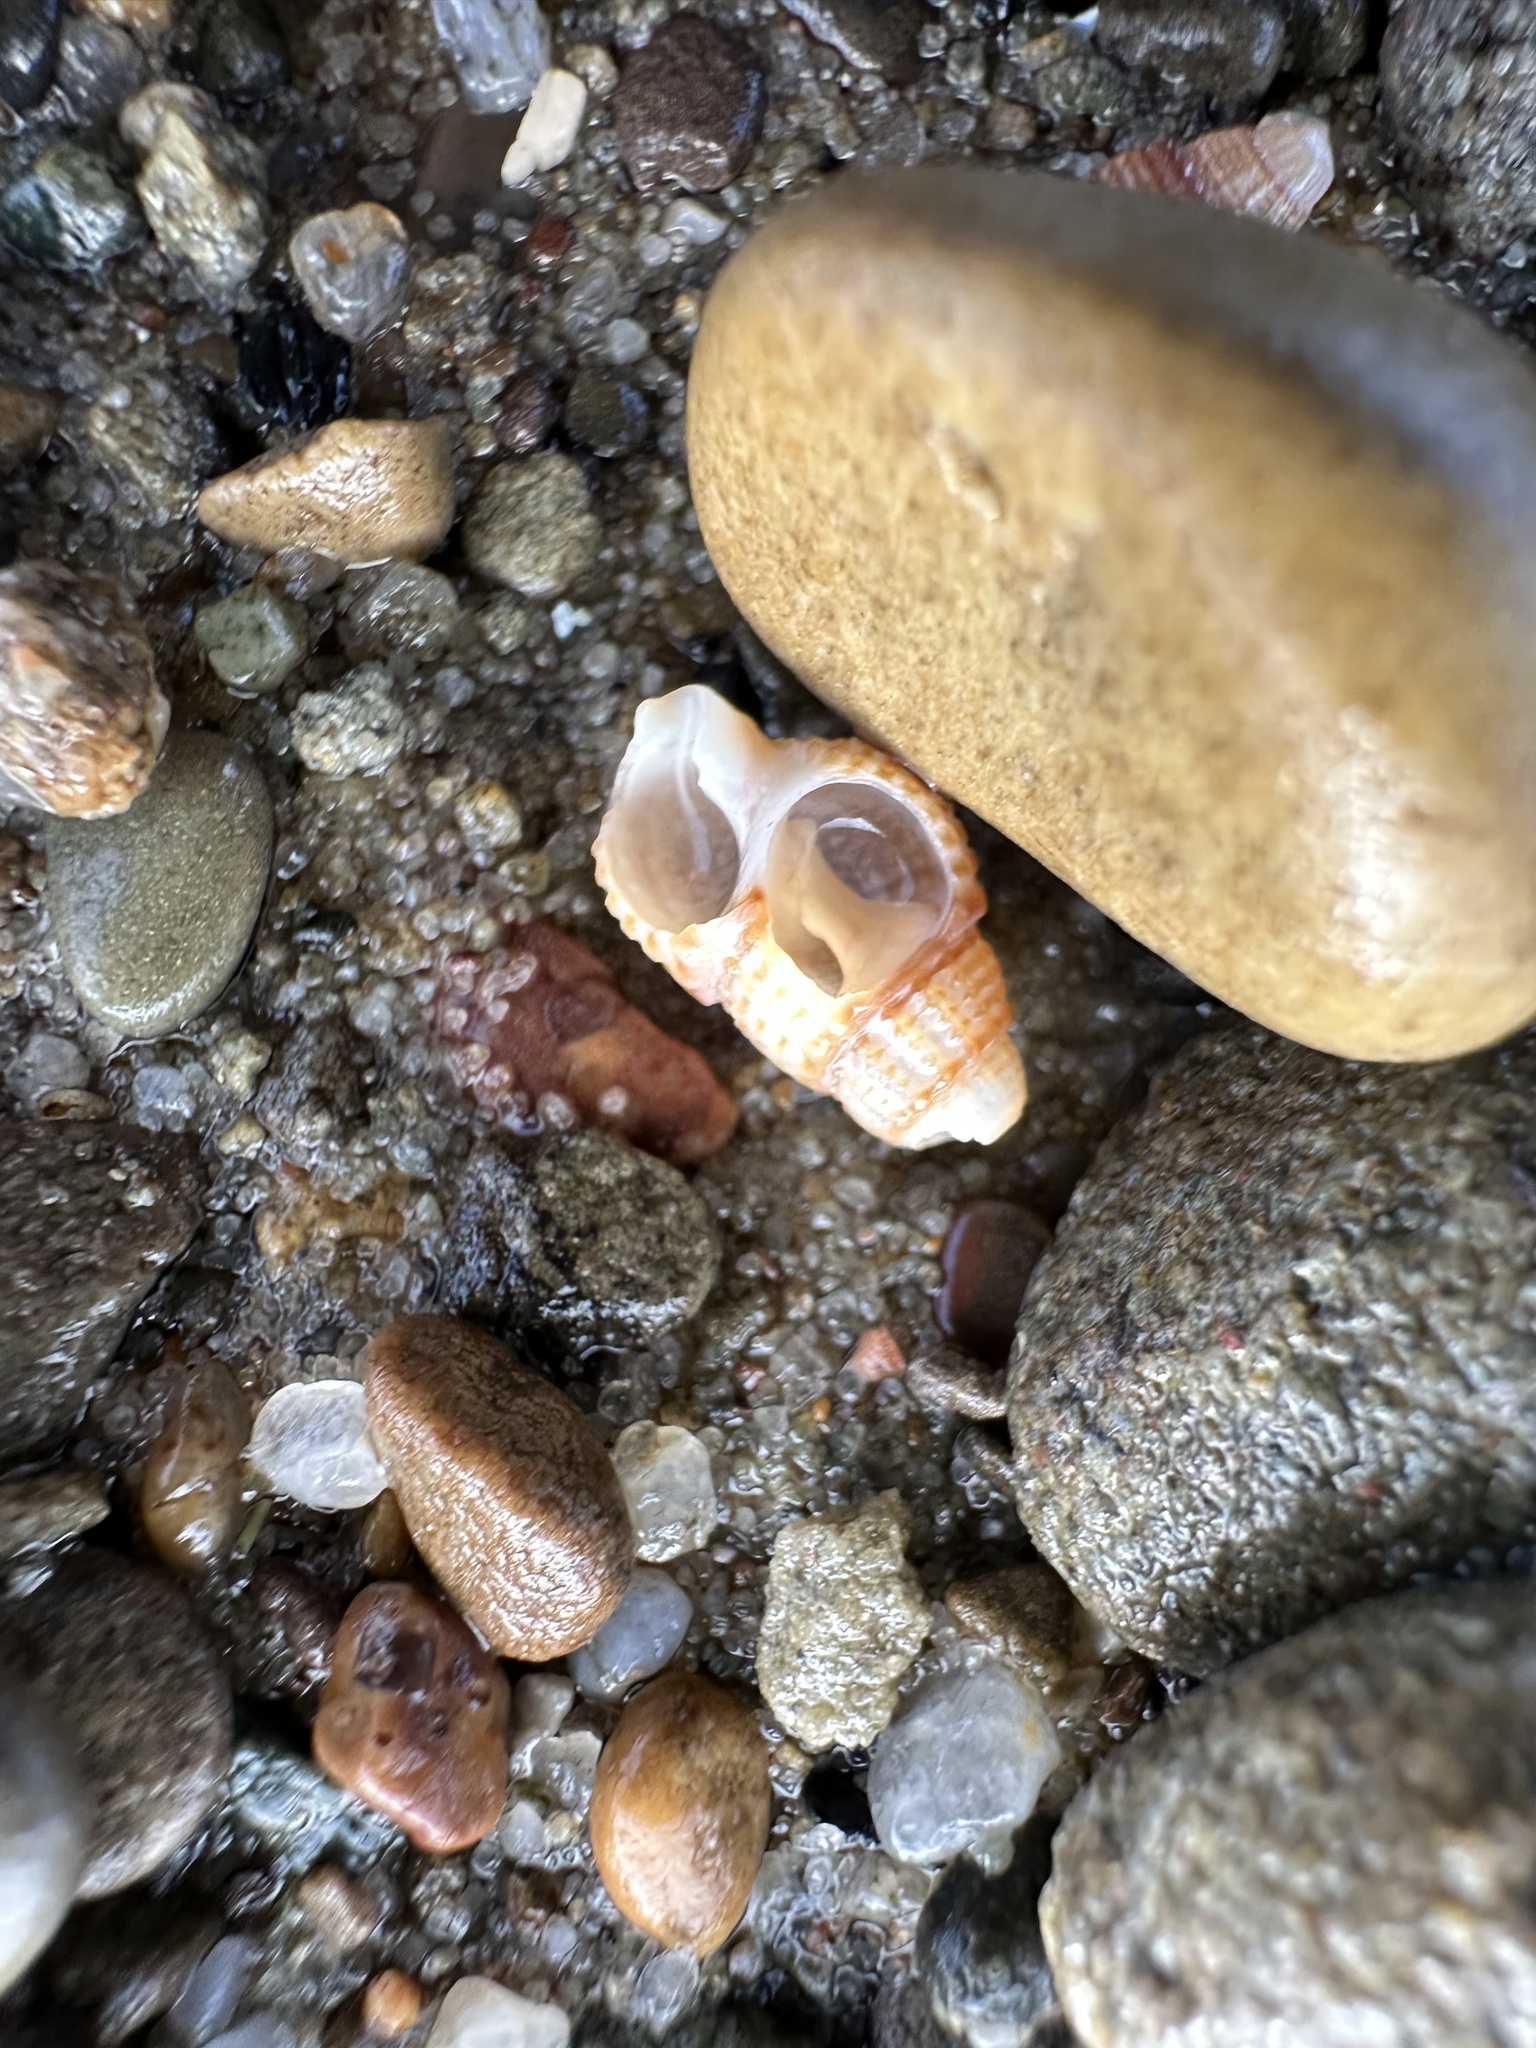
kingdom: Animalia
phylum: Mollusca
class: Gastropoda
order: Neogastropoda
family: Nassariidae
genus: Ilyanassa
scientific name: Ilyanassa trivittata
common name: Three-line mudsnail
